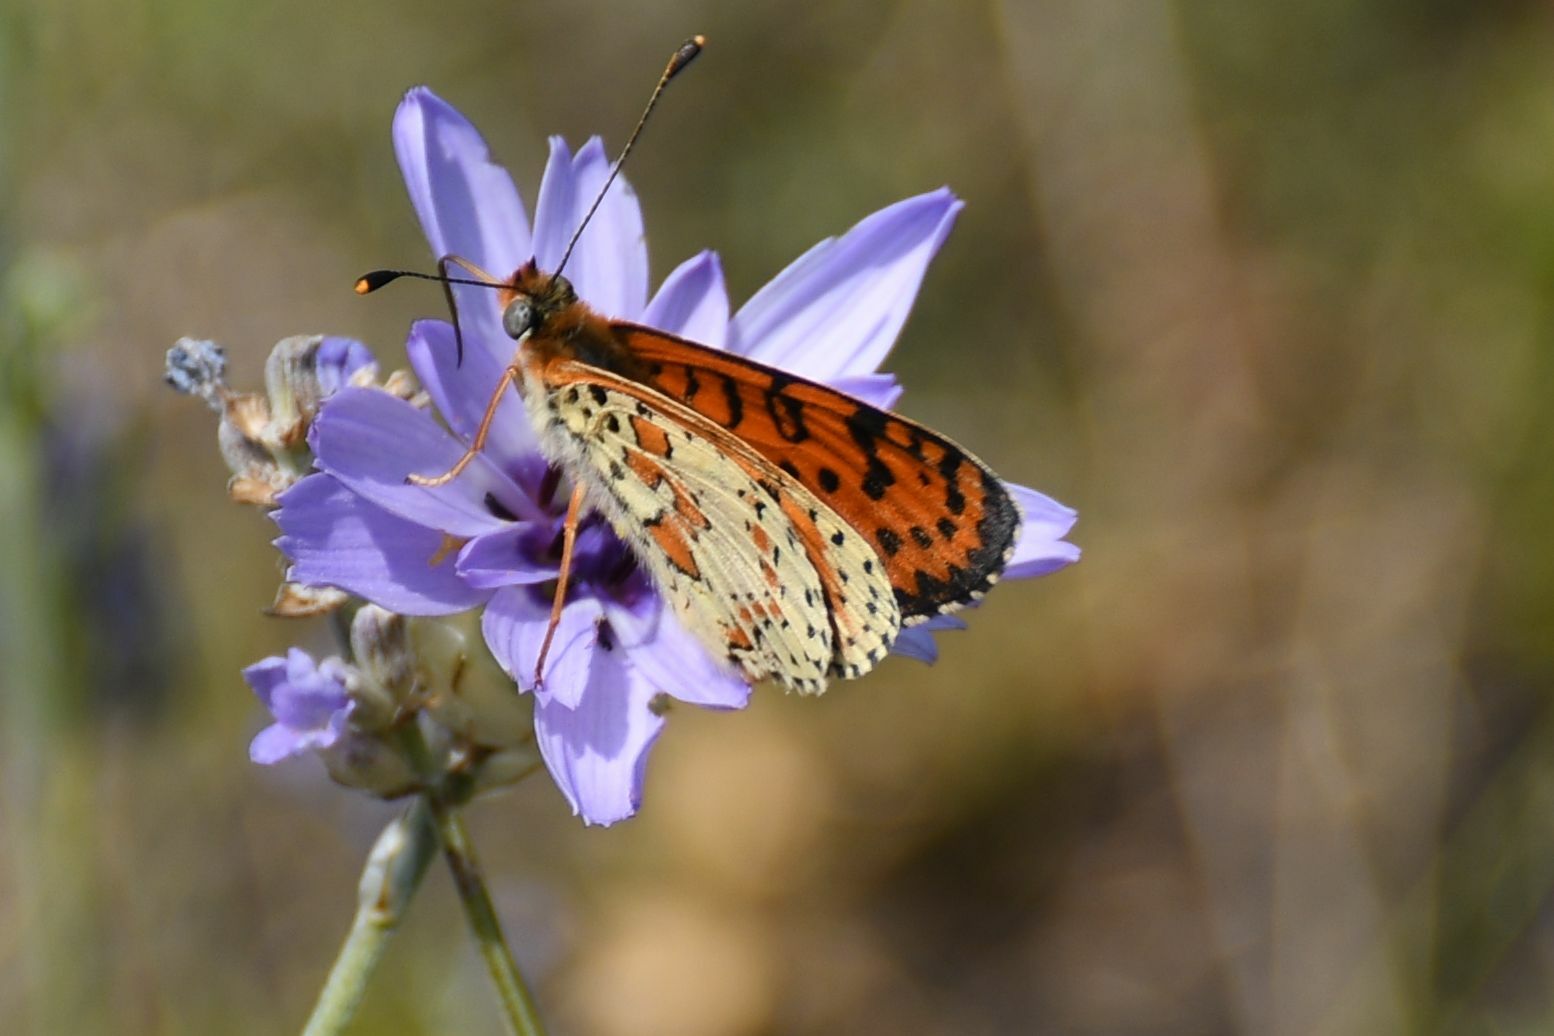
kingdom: Animalia
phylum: Arthropoda
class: Insecta
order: Lepidoptera
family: Nymphalidae
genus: Melitaea
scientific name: Melitaea didyma
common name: Spotted fritillary
